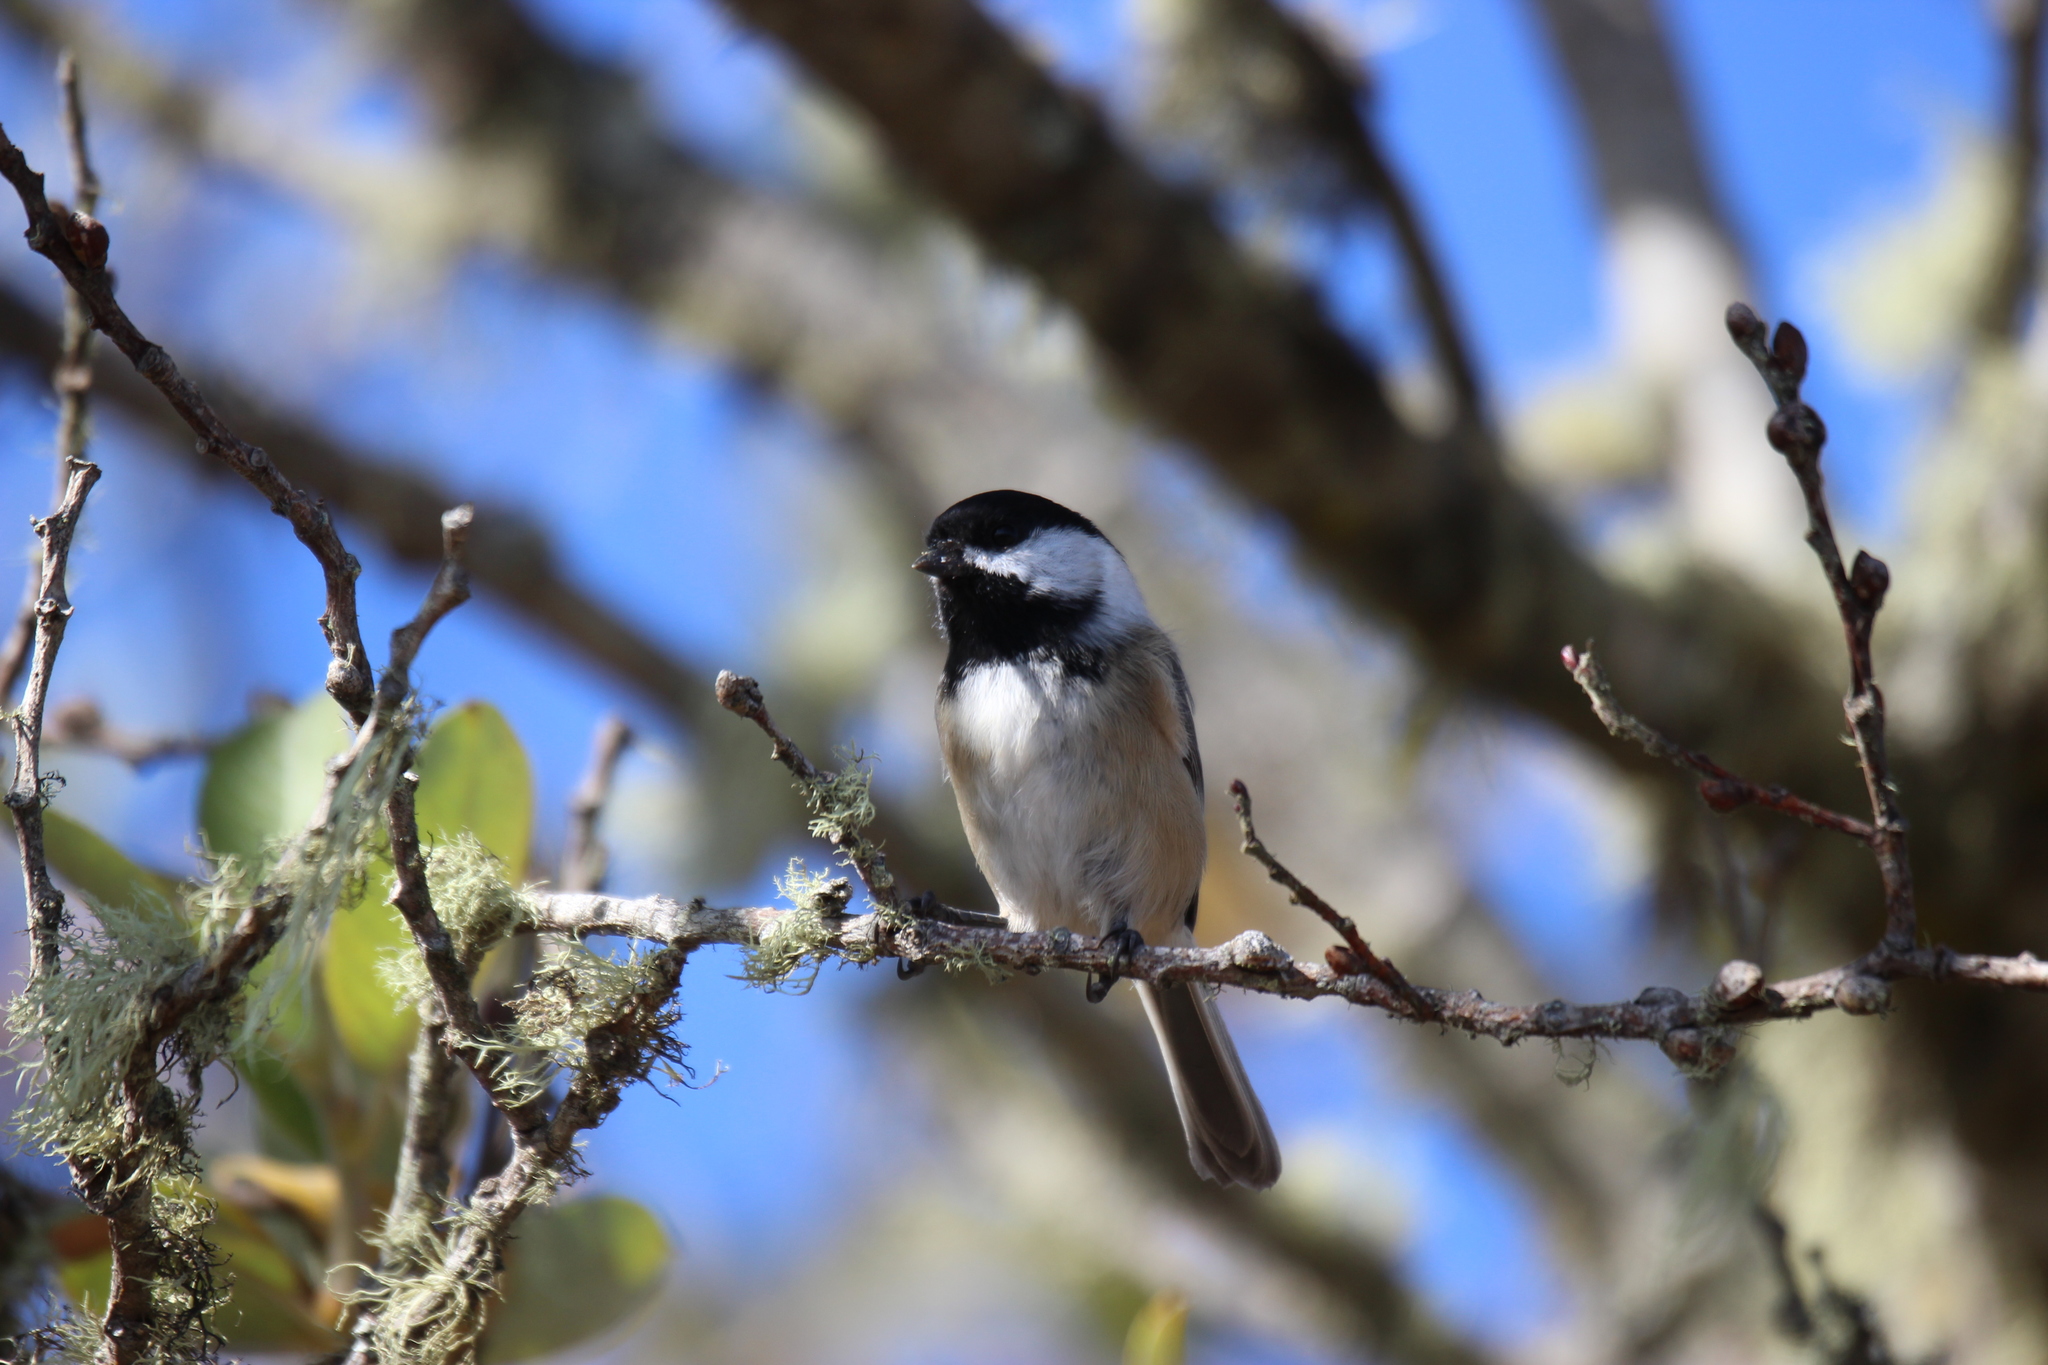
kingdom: Animalia
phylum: Chordata
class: Aves
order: Passeriformes
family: Paridae
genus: Poecile
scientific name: Poecile atricapillus
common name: Black-capped chickadee
